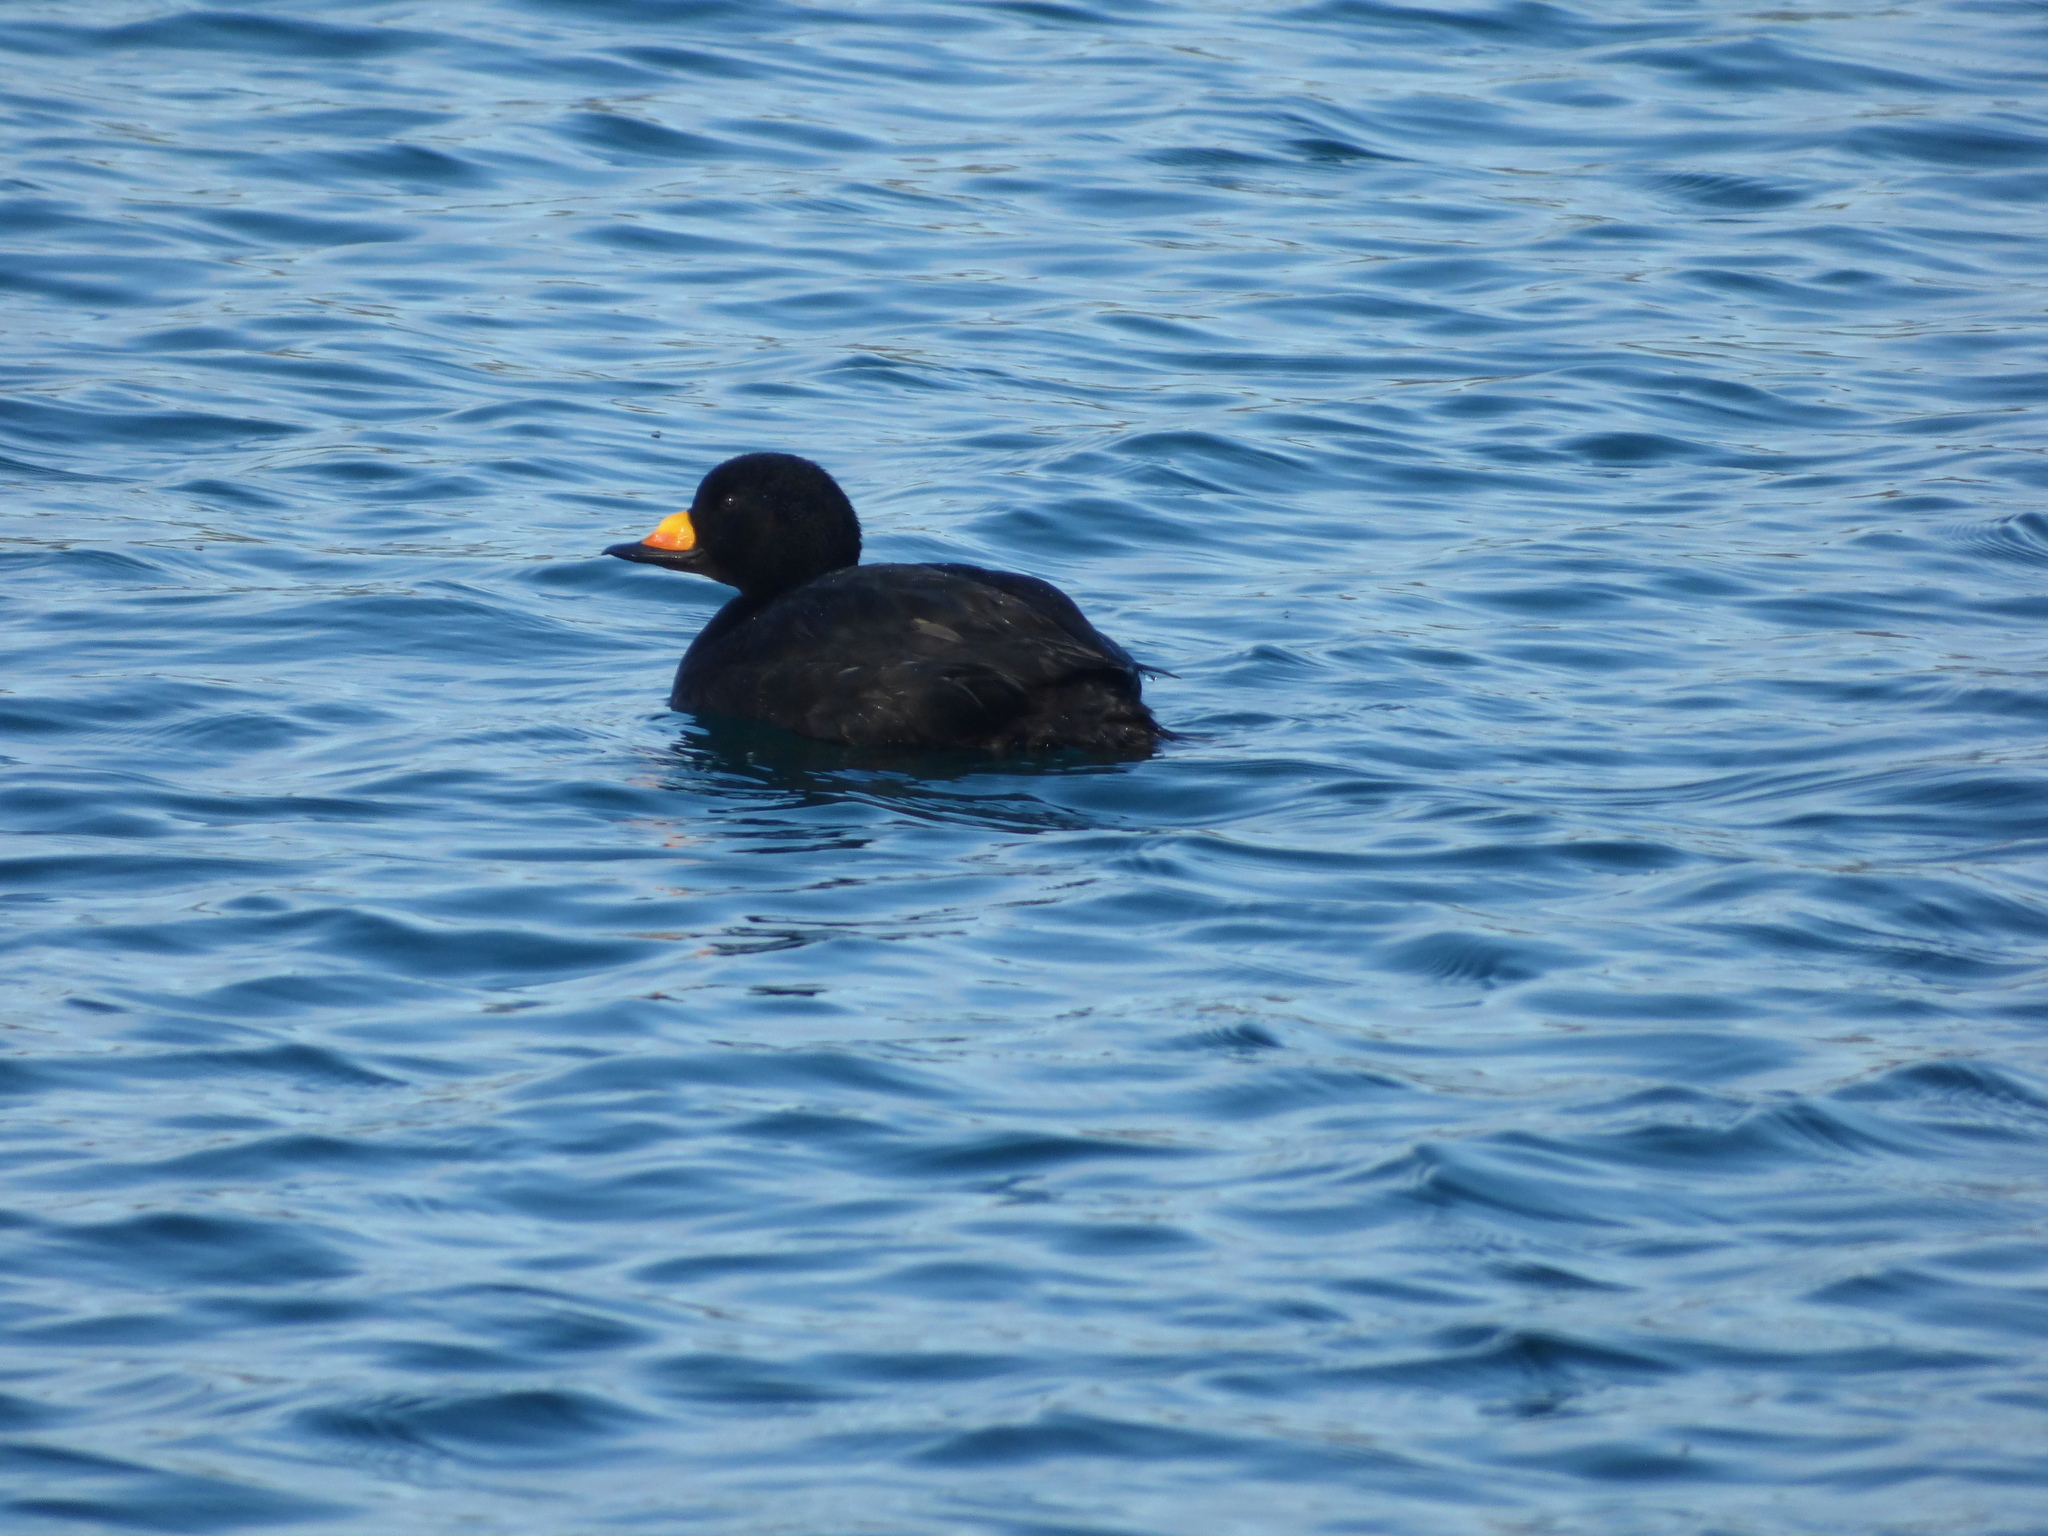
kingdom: Animalia
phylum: Chordata
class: Aves
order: Anseriformes
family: Anatidae
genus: Melanitta
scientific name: Melanitta americana
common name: Black scoter
